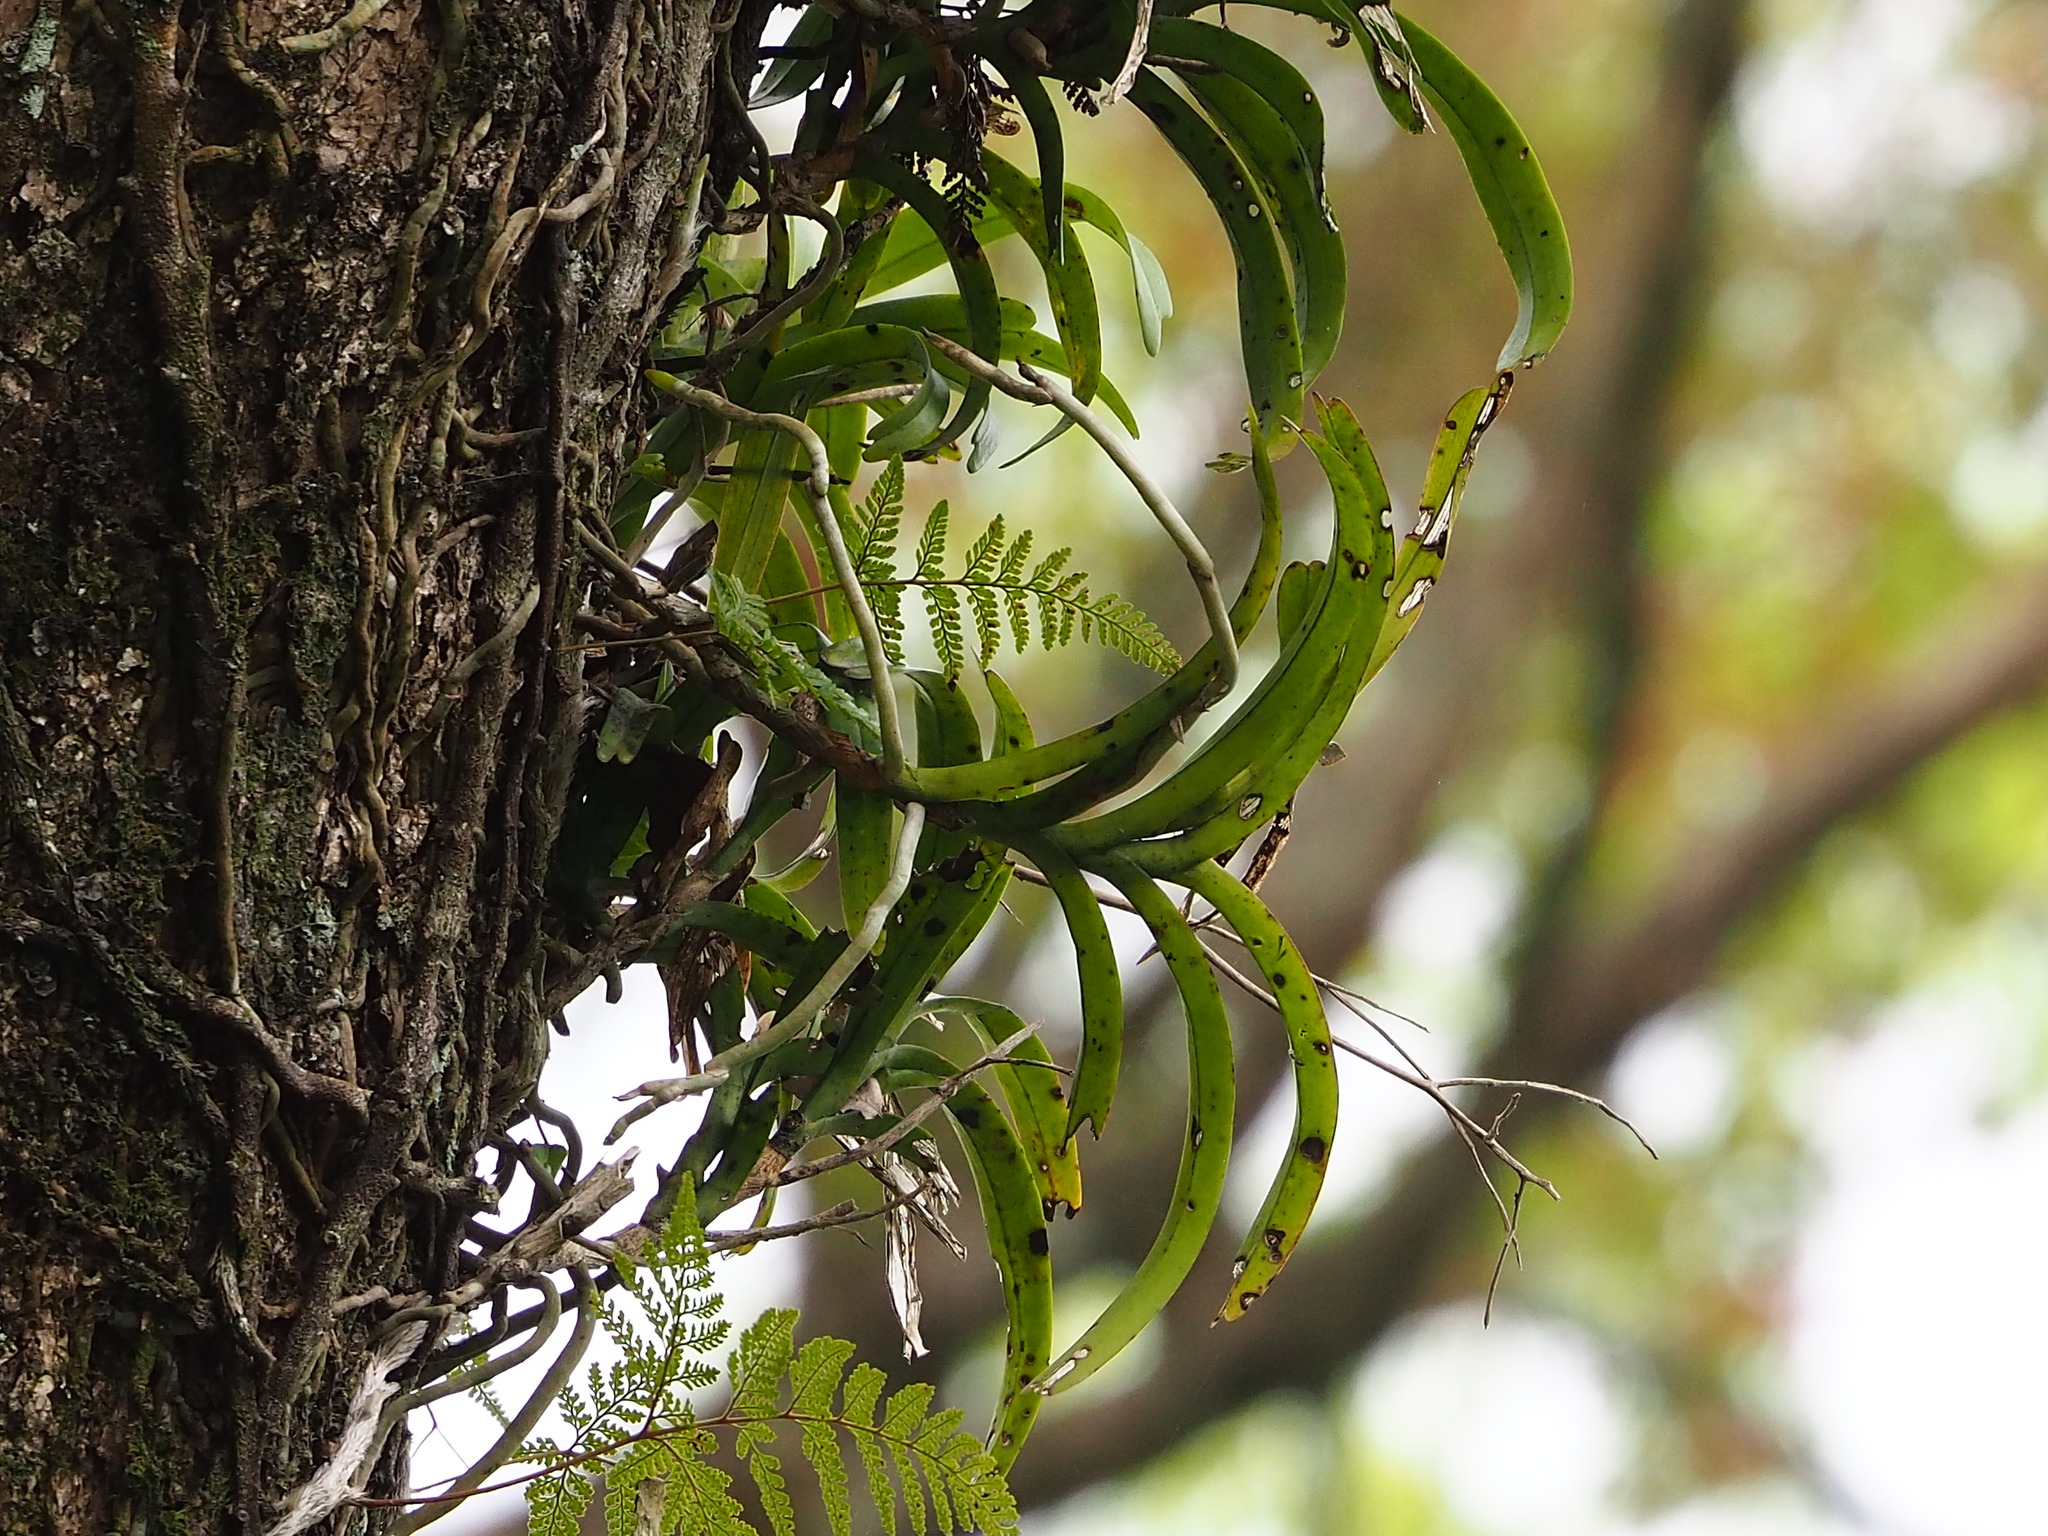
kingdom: Plantae
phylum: Tracheophyta
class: Liliopsida
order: Asparagales
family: Orchidaceae
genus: Cleisostoma
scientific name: Cleisostoma paniculatum
